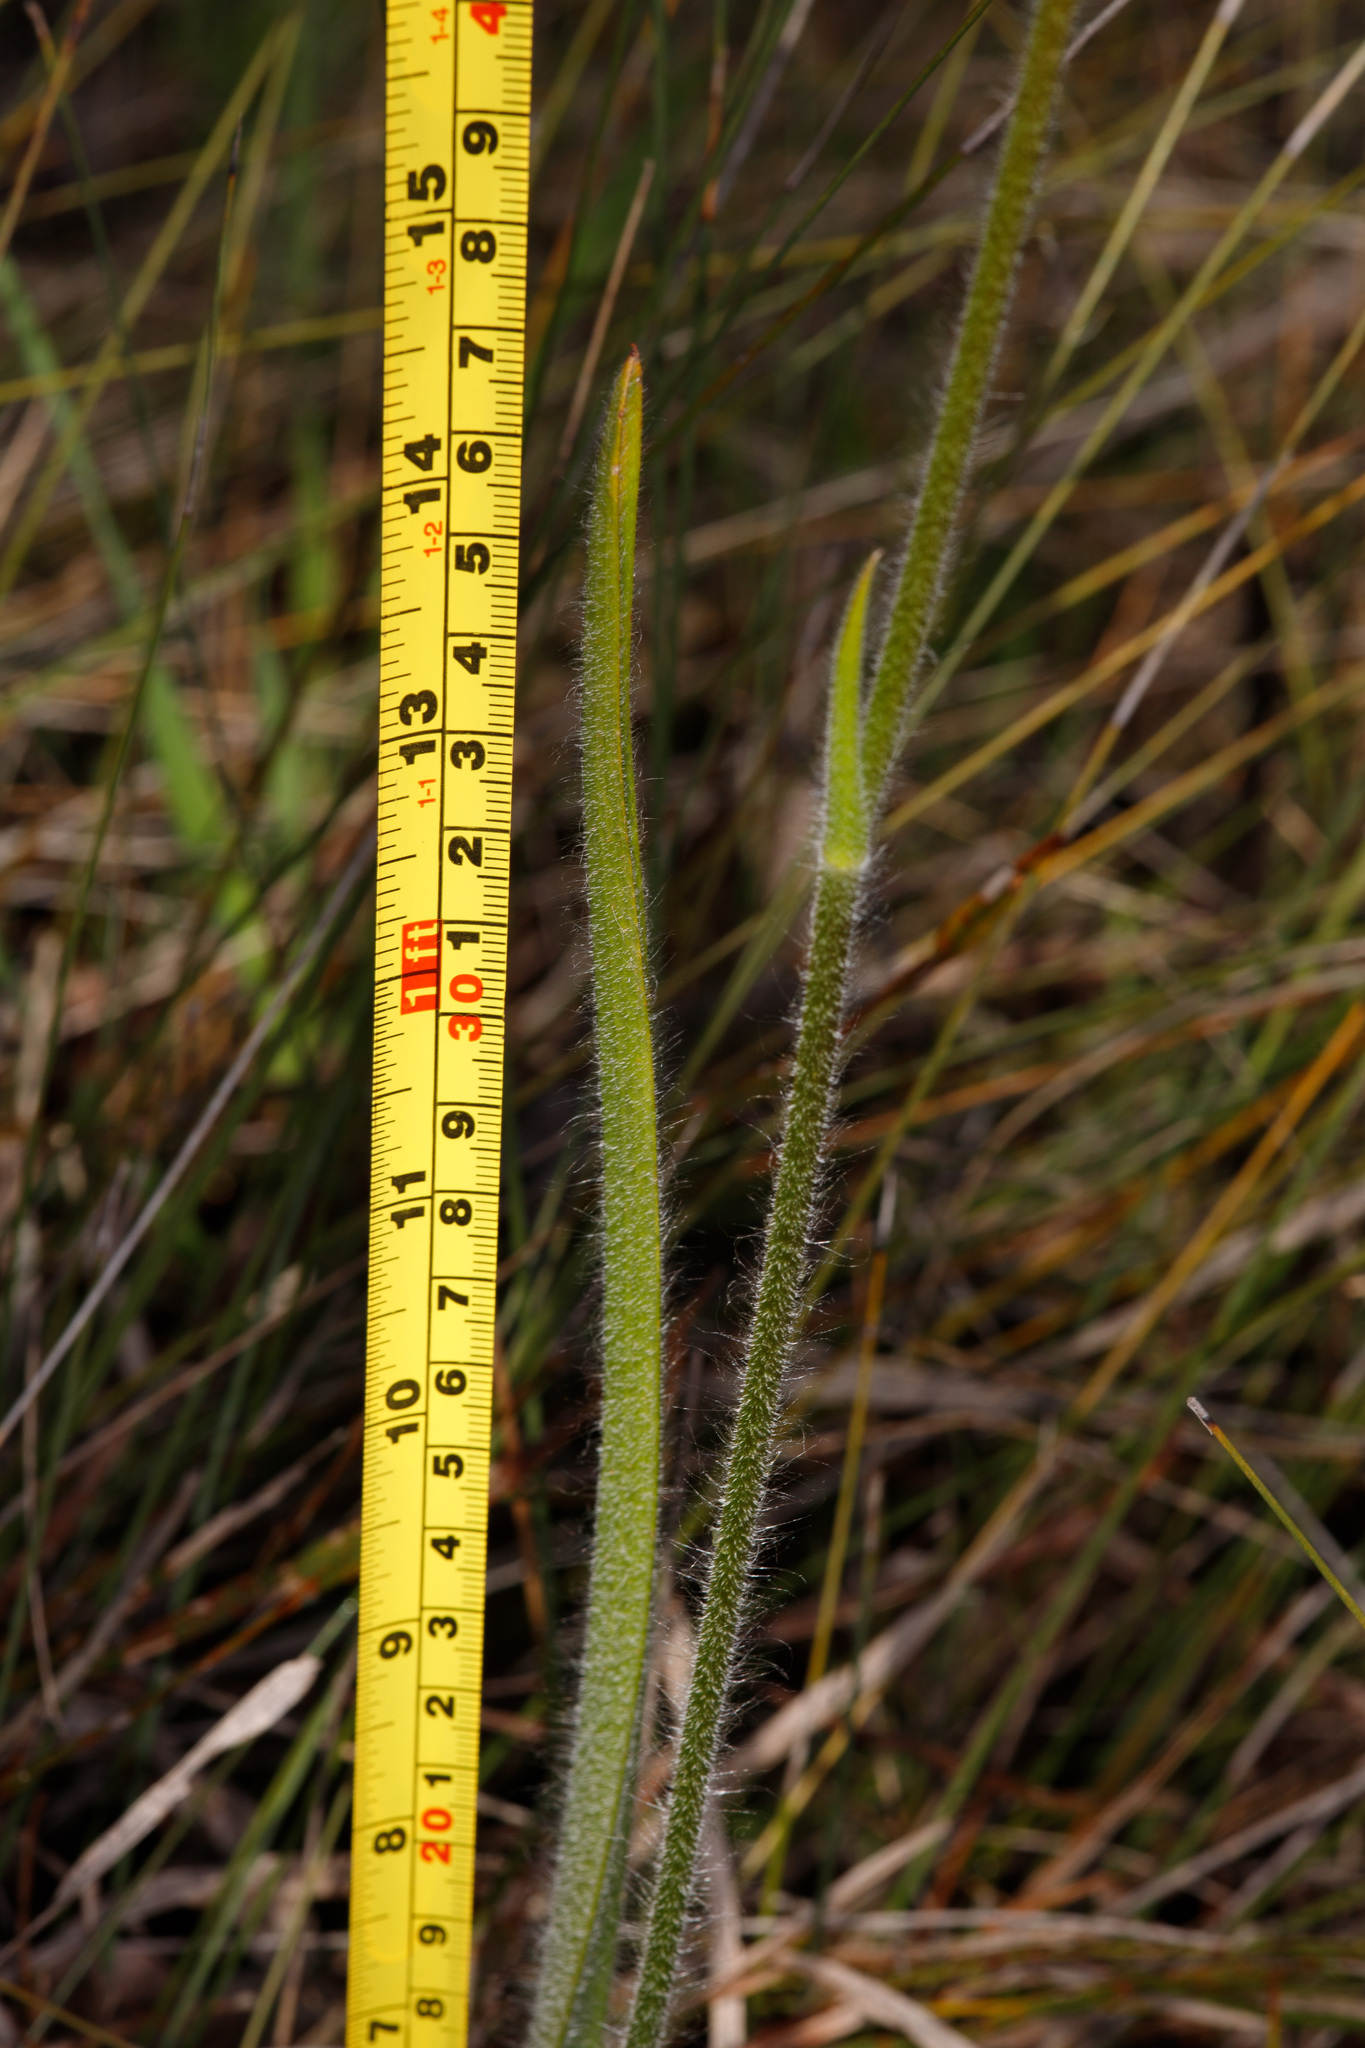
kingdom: Plantae
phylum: Tracheophyta
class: Liliopsida
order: Asparagales
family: Orchidaceae
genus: Caladenia
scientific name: Caladenia paludosa
